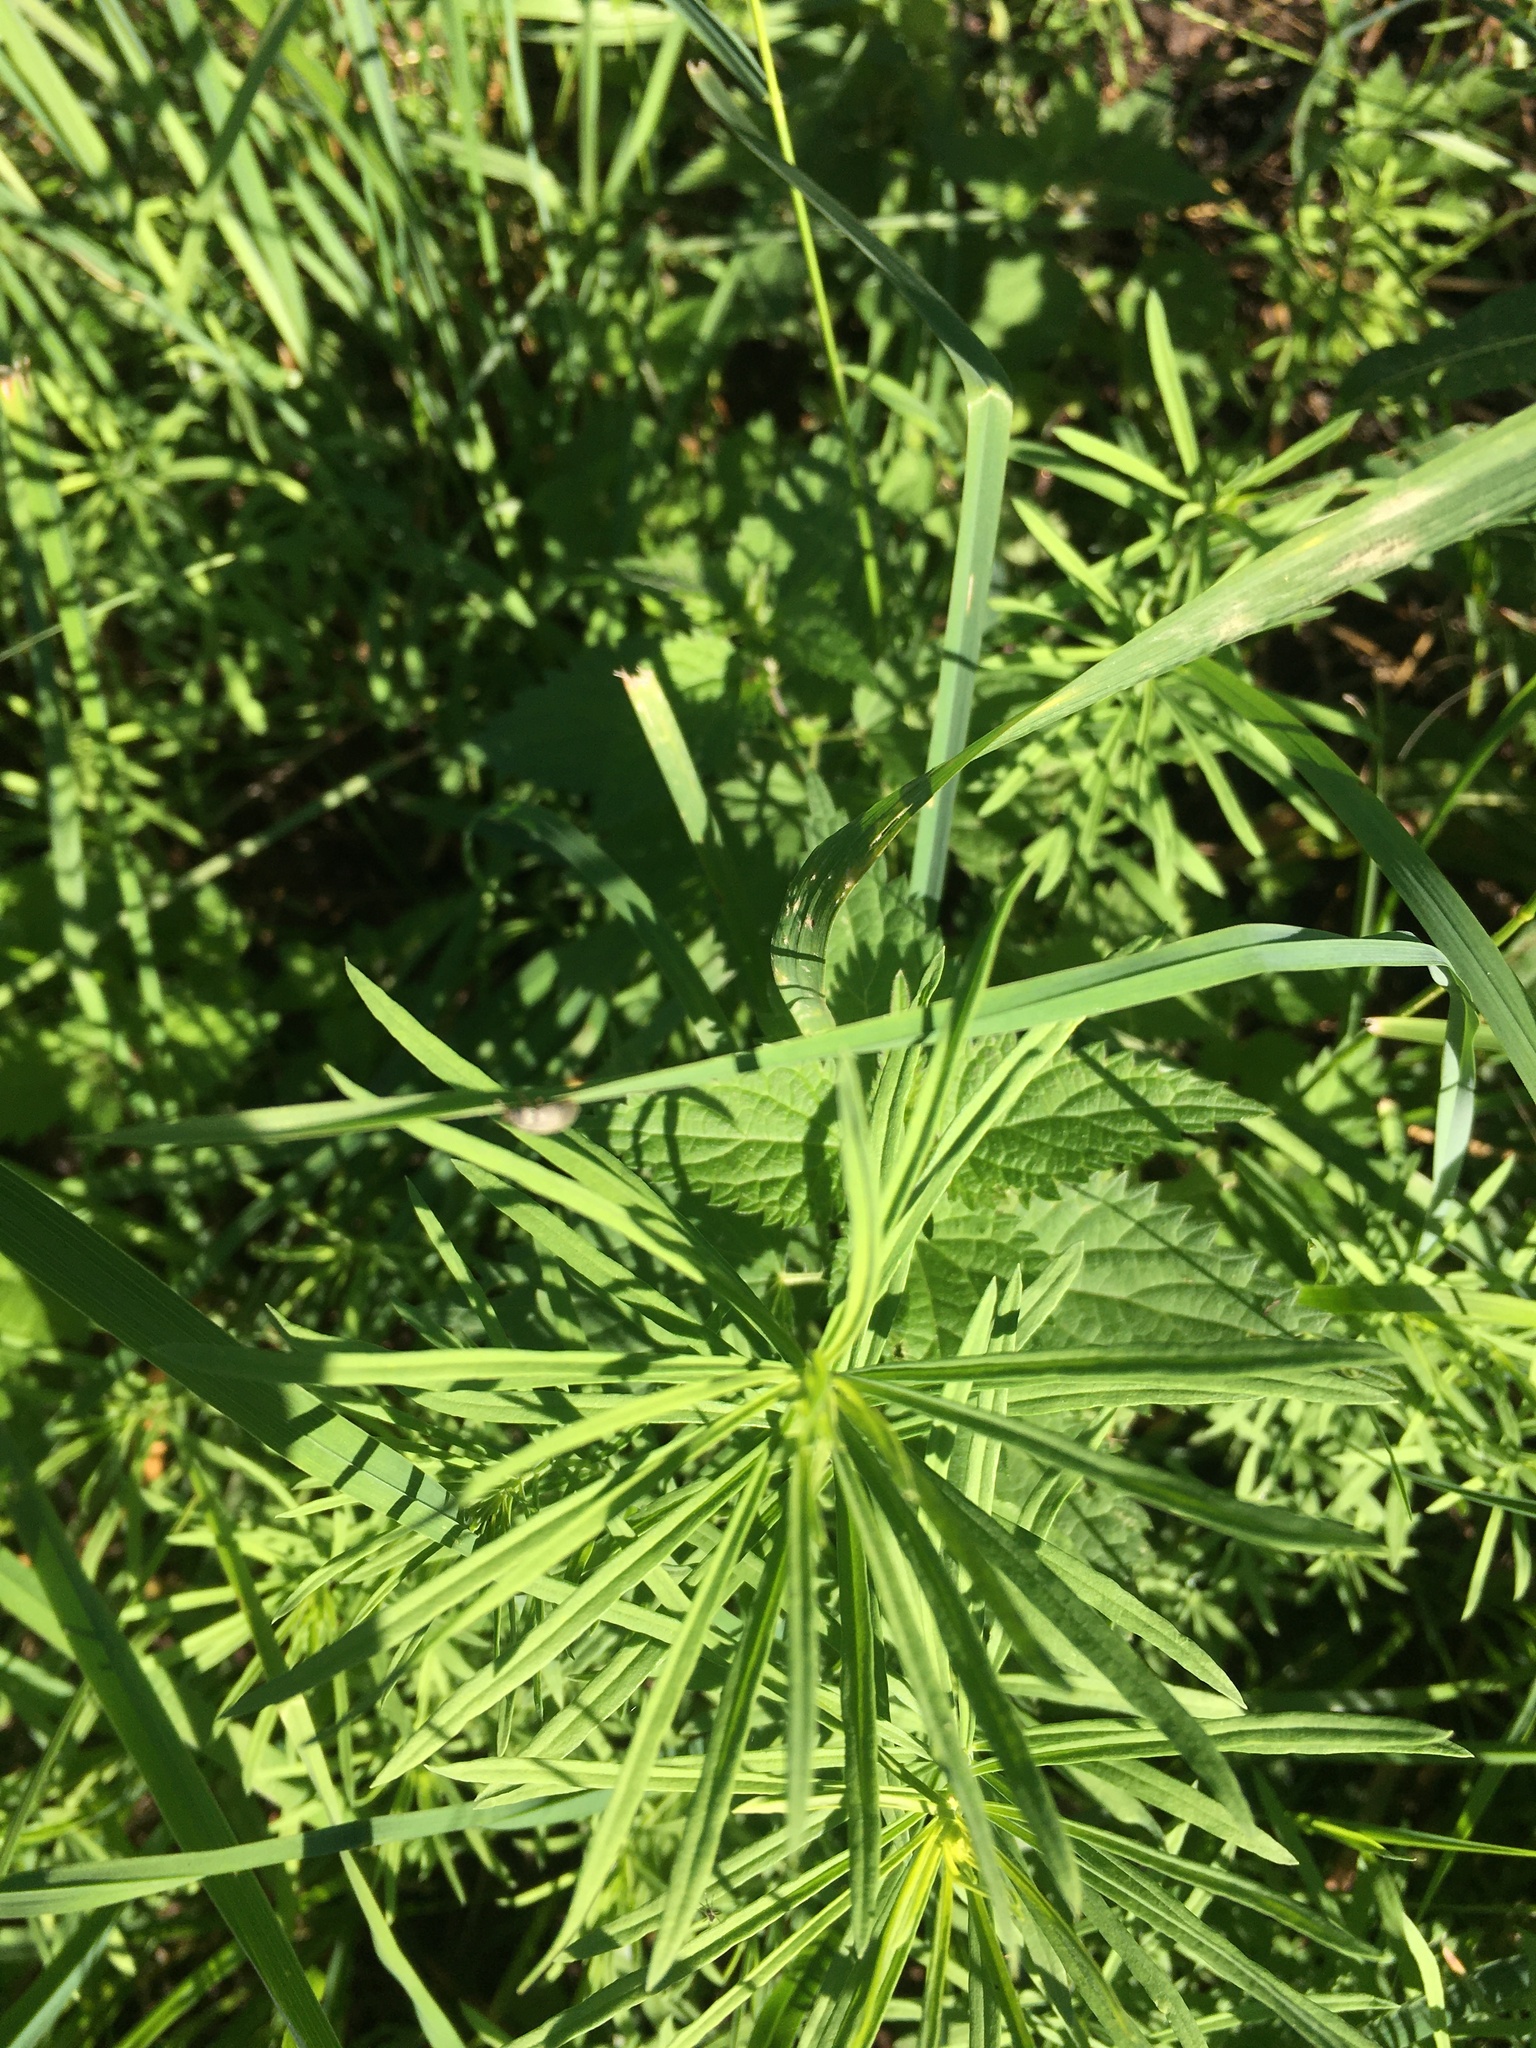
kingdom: Plantae
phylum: Tracheophyta
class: Magnoliopsida
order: Lamiales
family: Plantaginaceae
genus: Linaria
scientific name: Linaria vulgaris
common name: Butter and eggs
